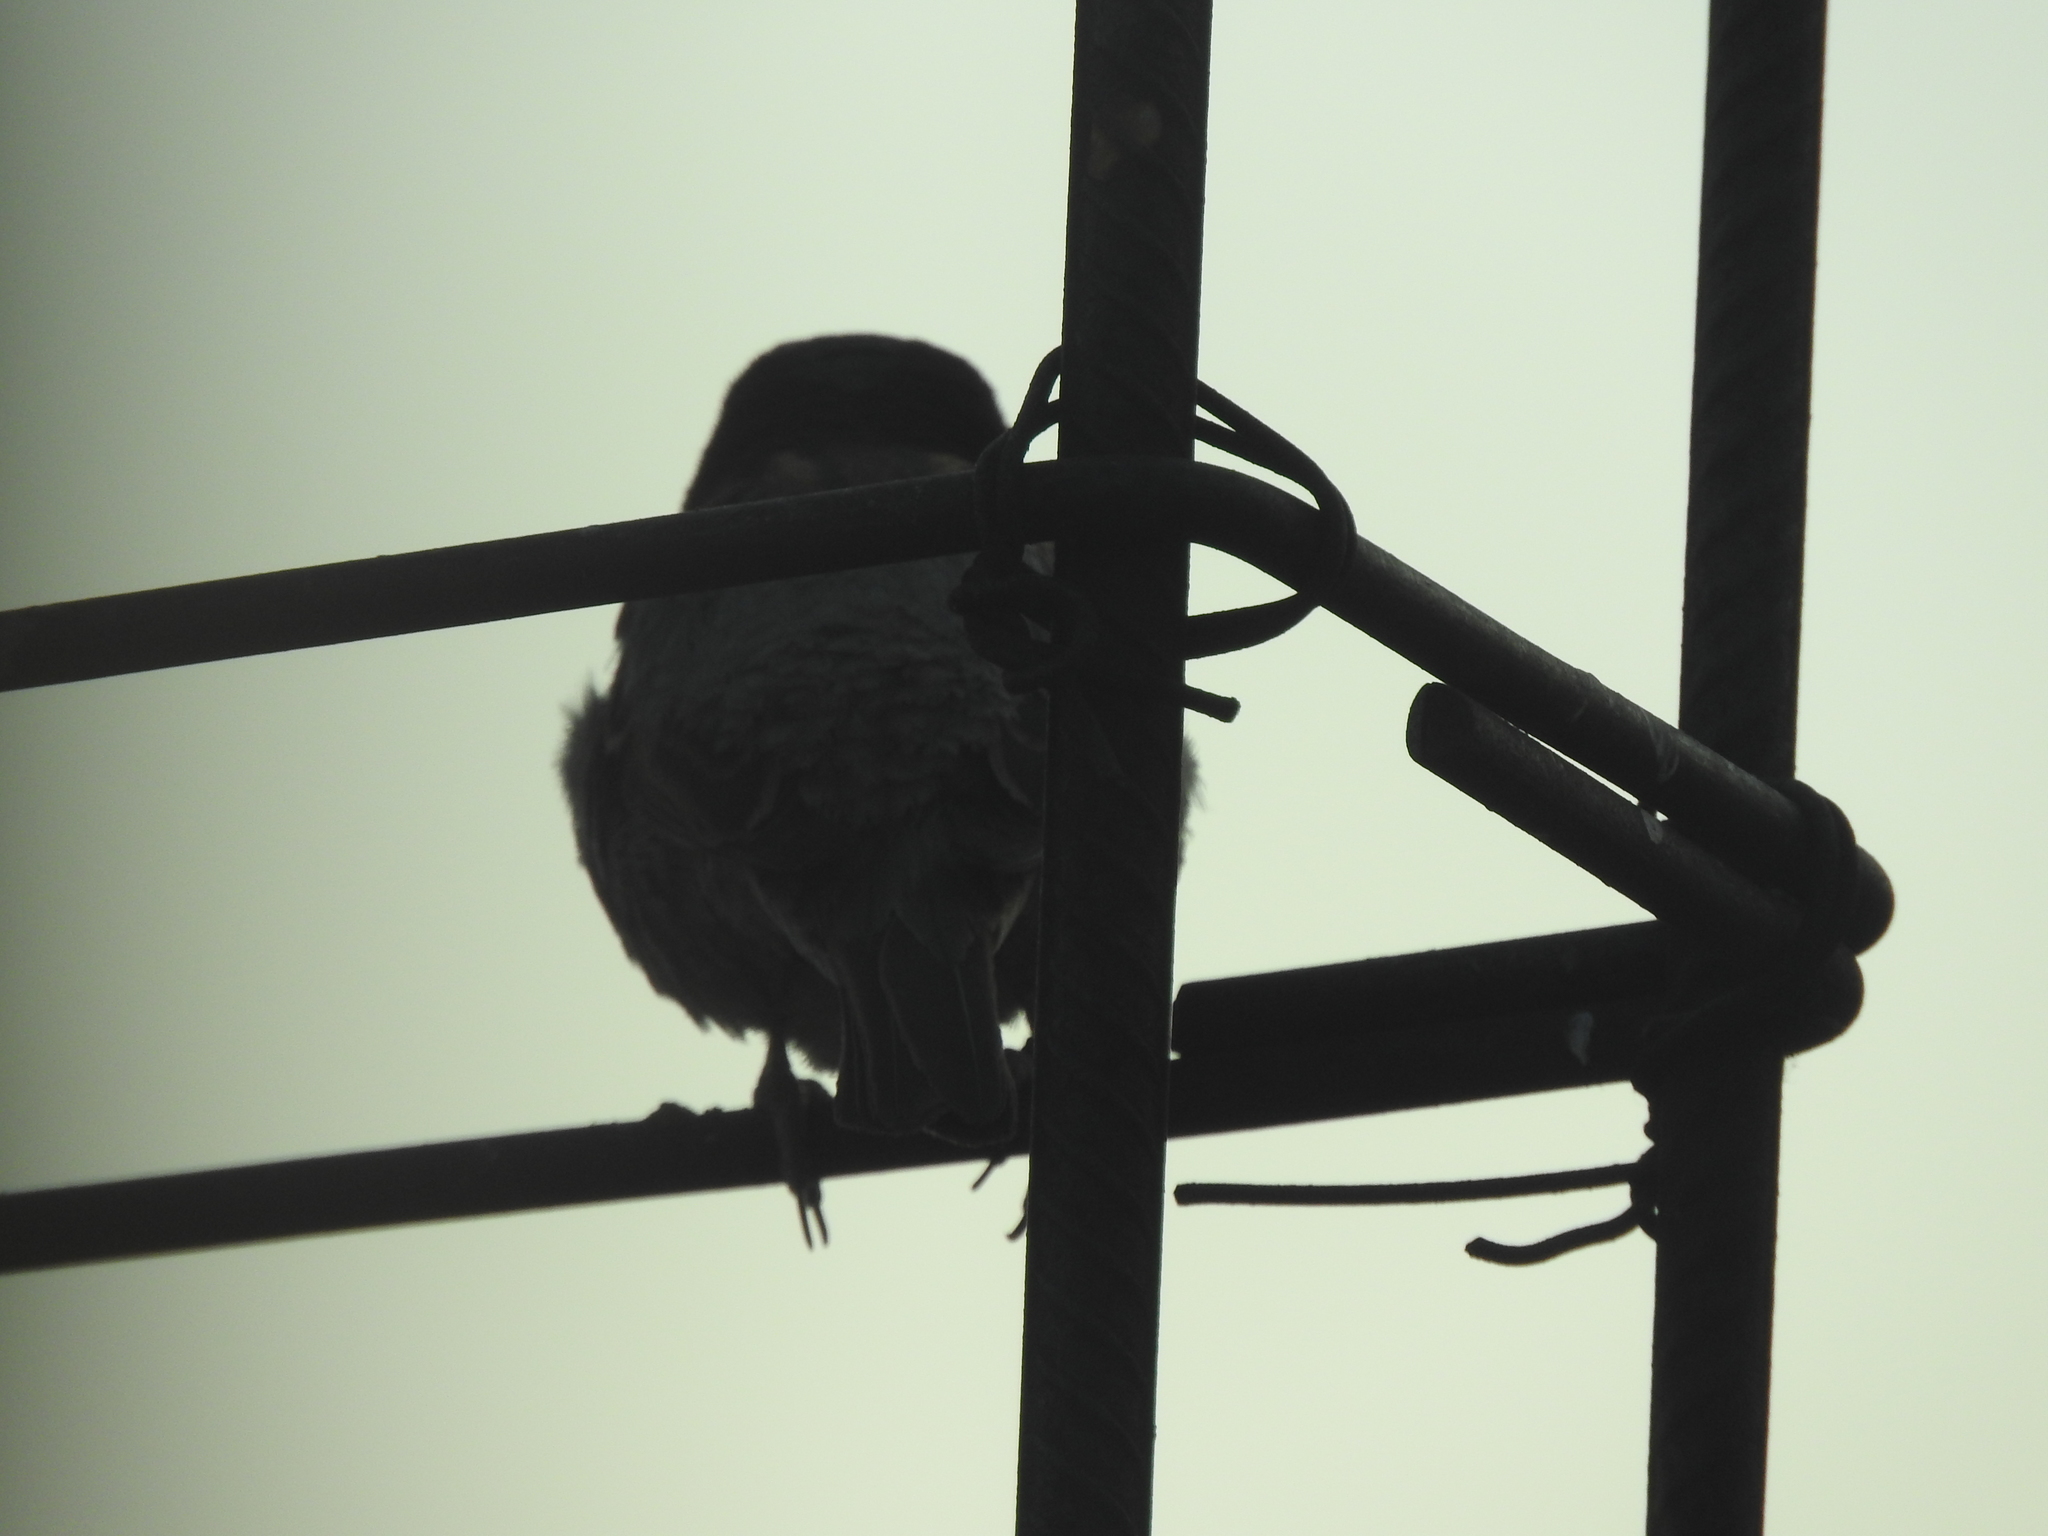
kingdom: Animalia
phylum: Chordata
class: Aves
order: Passeriformes
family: Passeridae
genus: Passer
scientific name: Passer domesticus
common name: House sparrow
